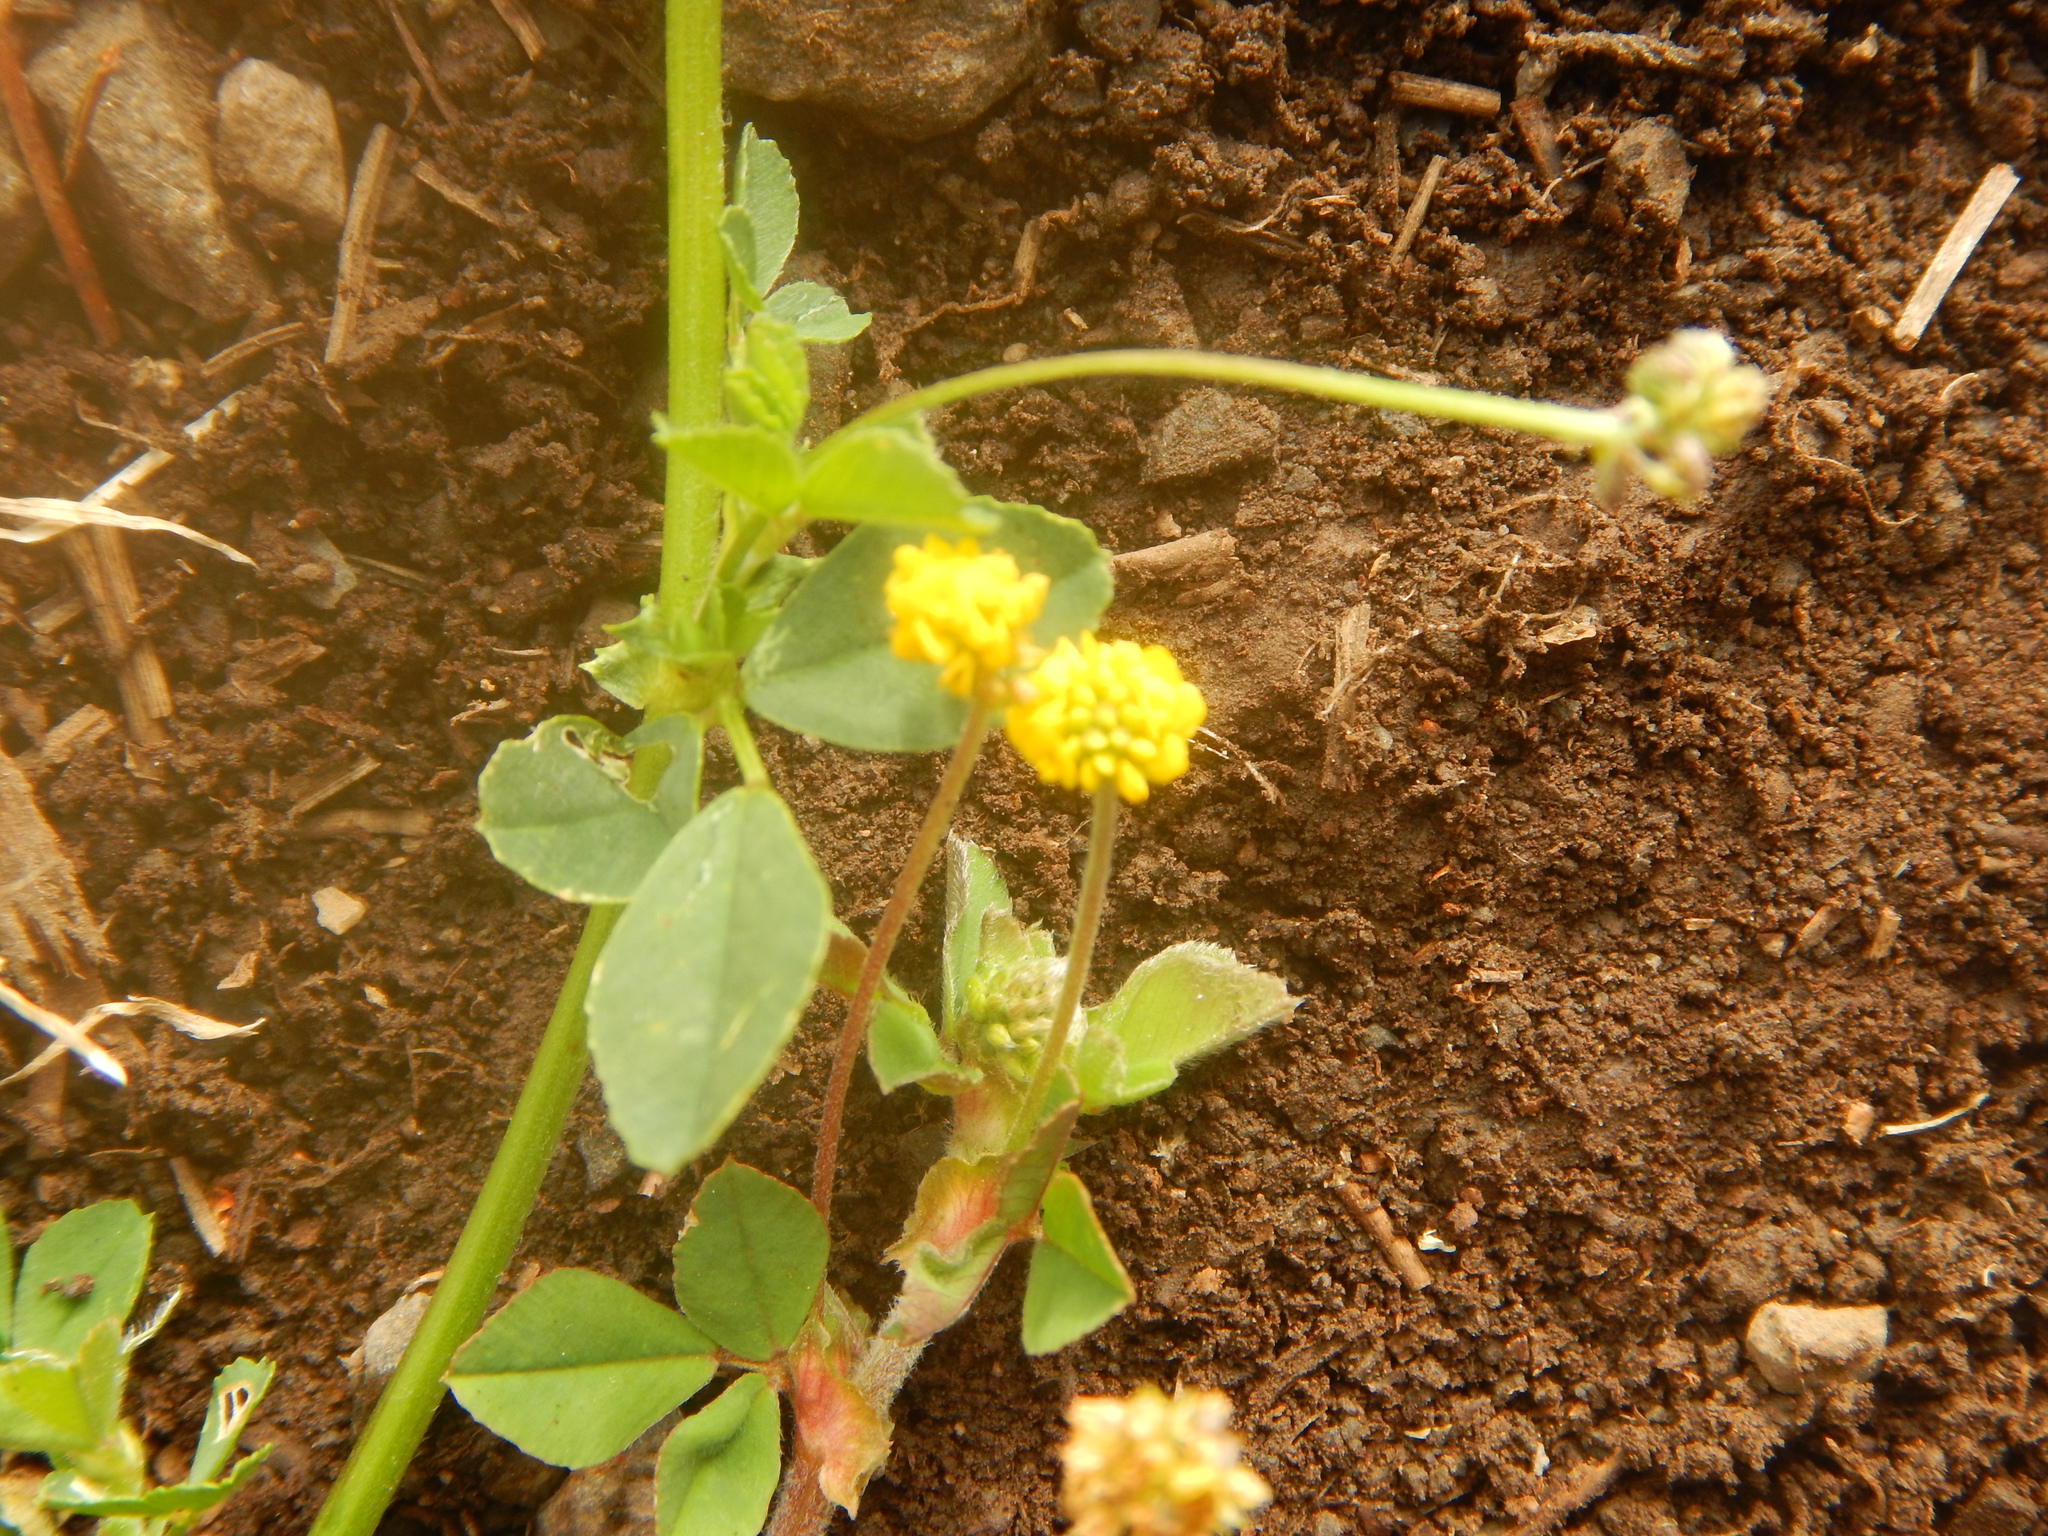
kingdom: Plantae
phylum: Tracheophyta
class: Magnoliopsida
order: Fabales
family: Fabaceae
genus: Medicago
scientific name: Medicago lupulina
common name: Black medick
